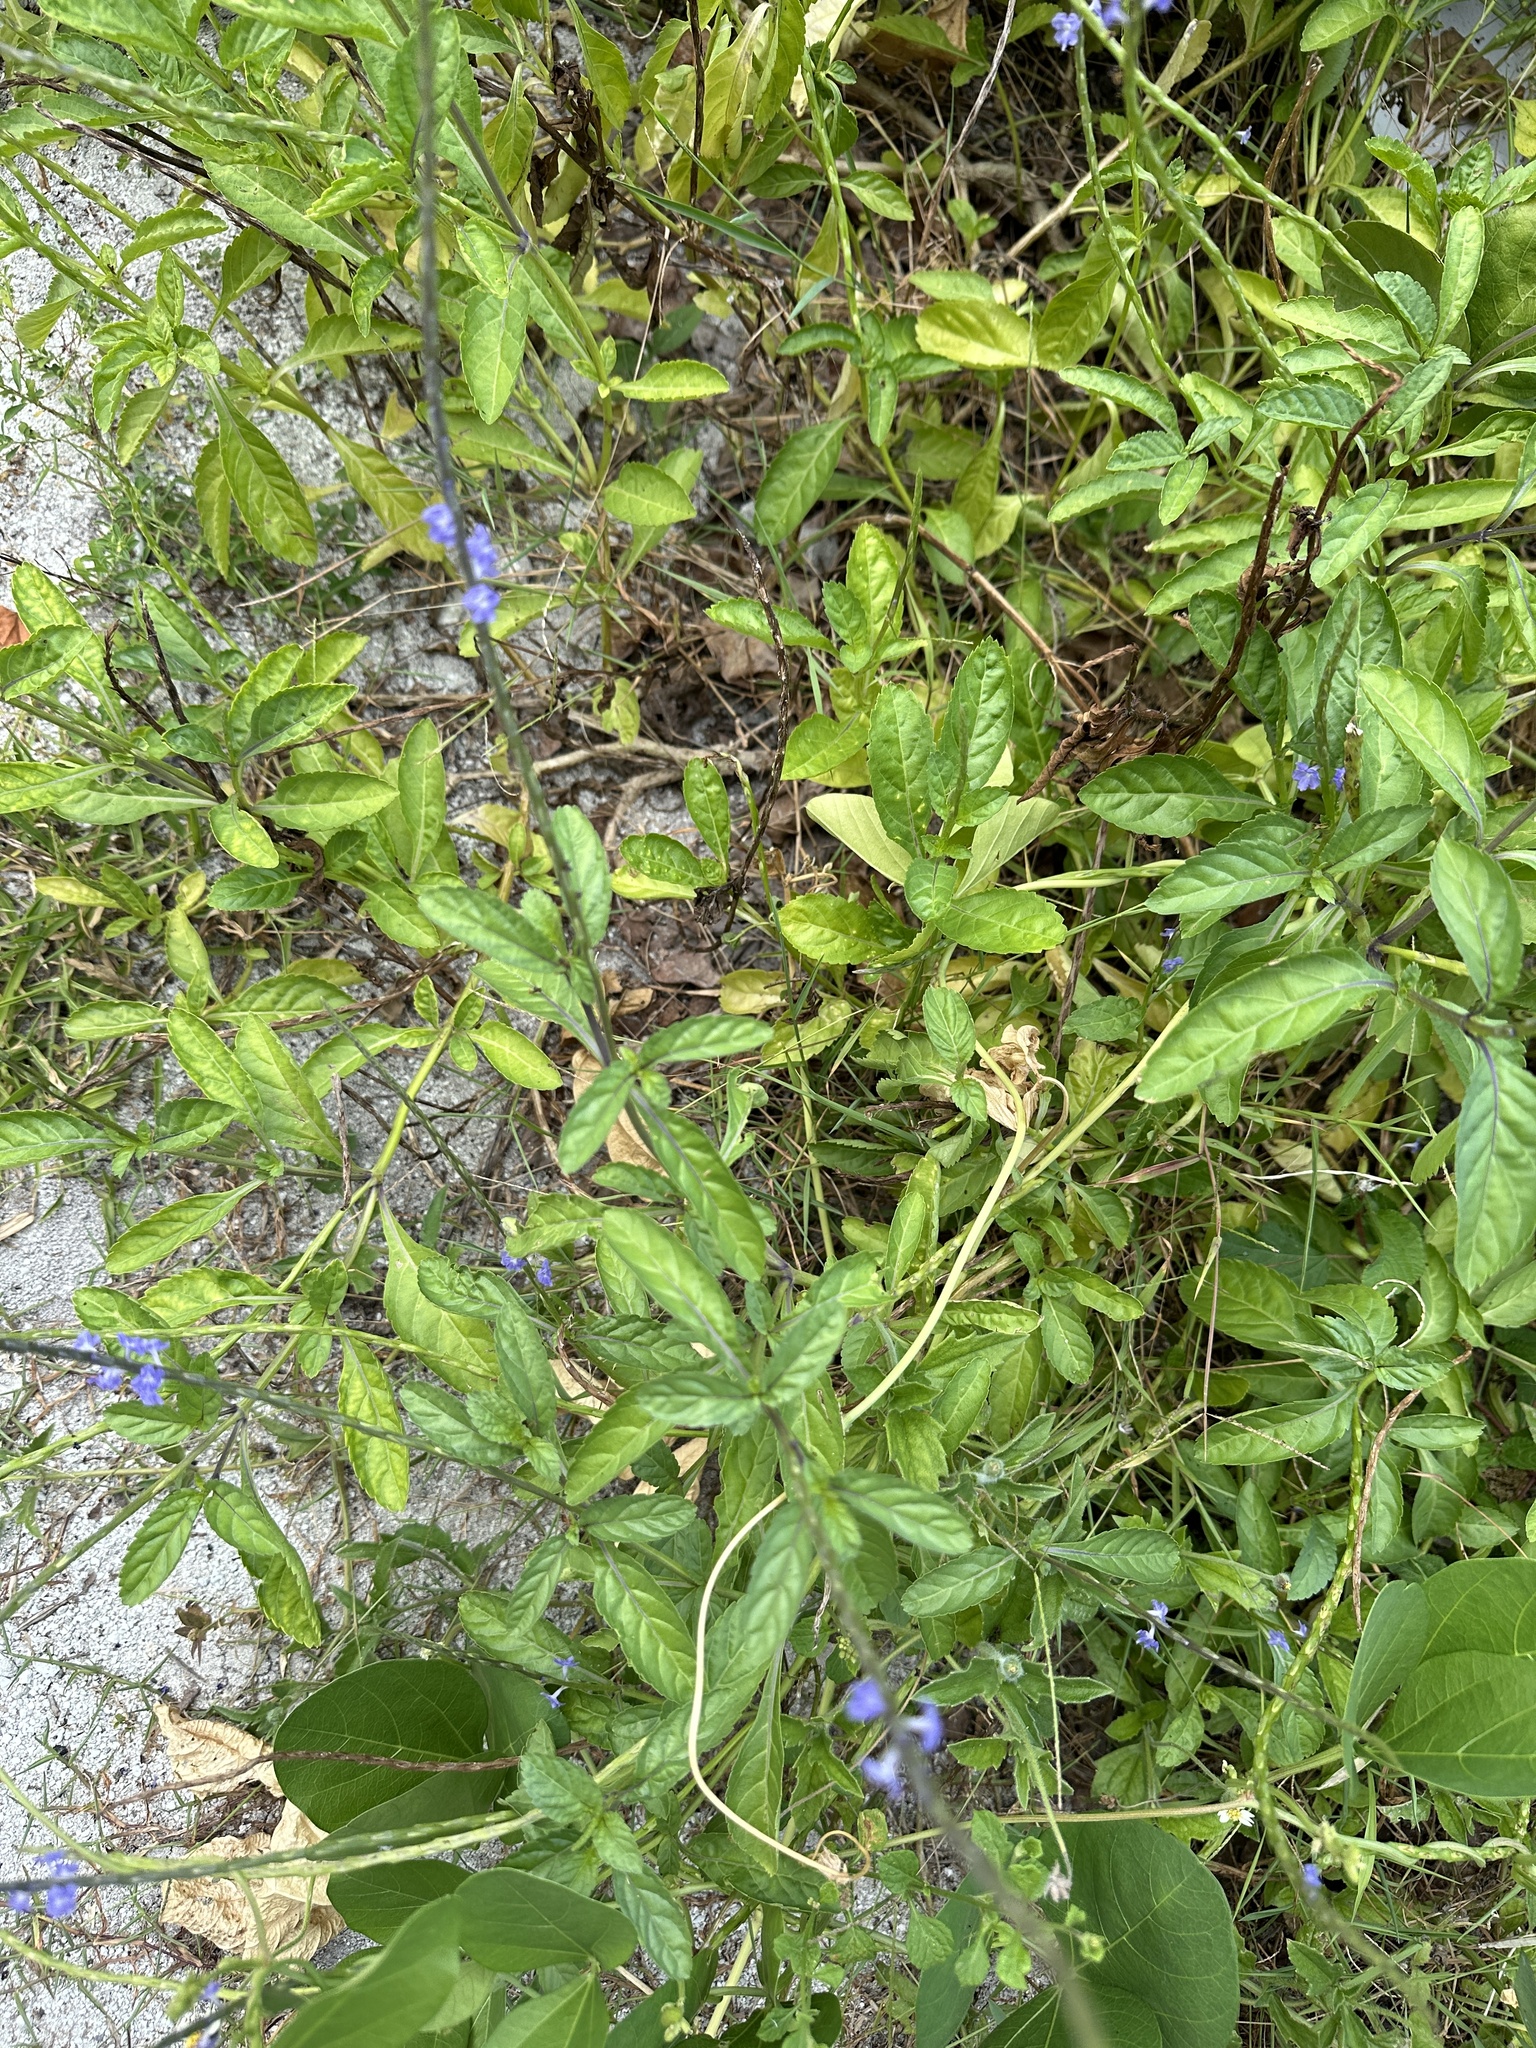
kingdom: Plantae
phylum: Tracheophyta
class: Magnoliopsida
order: Lamiales
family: Verbenaceae
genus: Stachytarpheta
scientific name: Stachytarpheta jamaicensis
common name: Light-blue snakeweed
